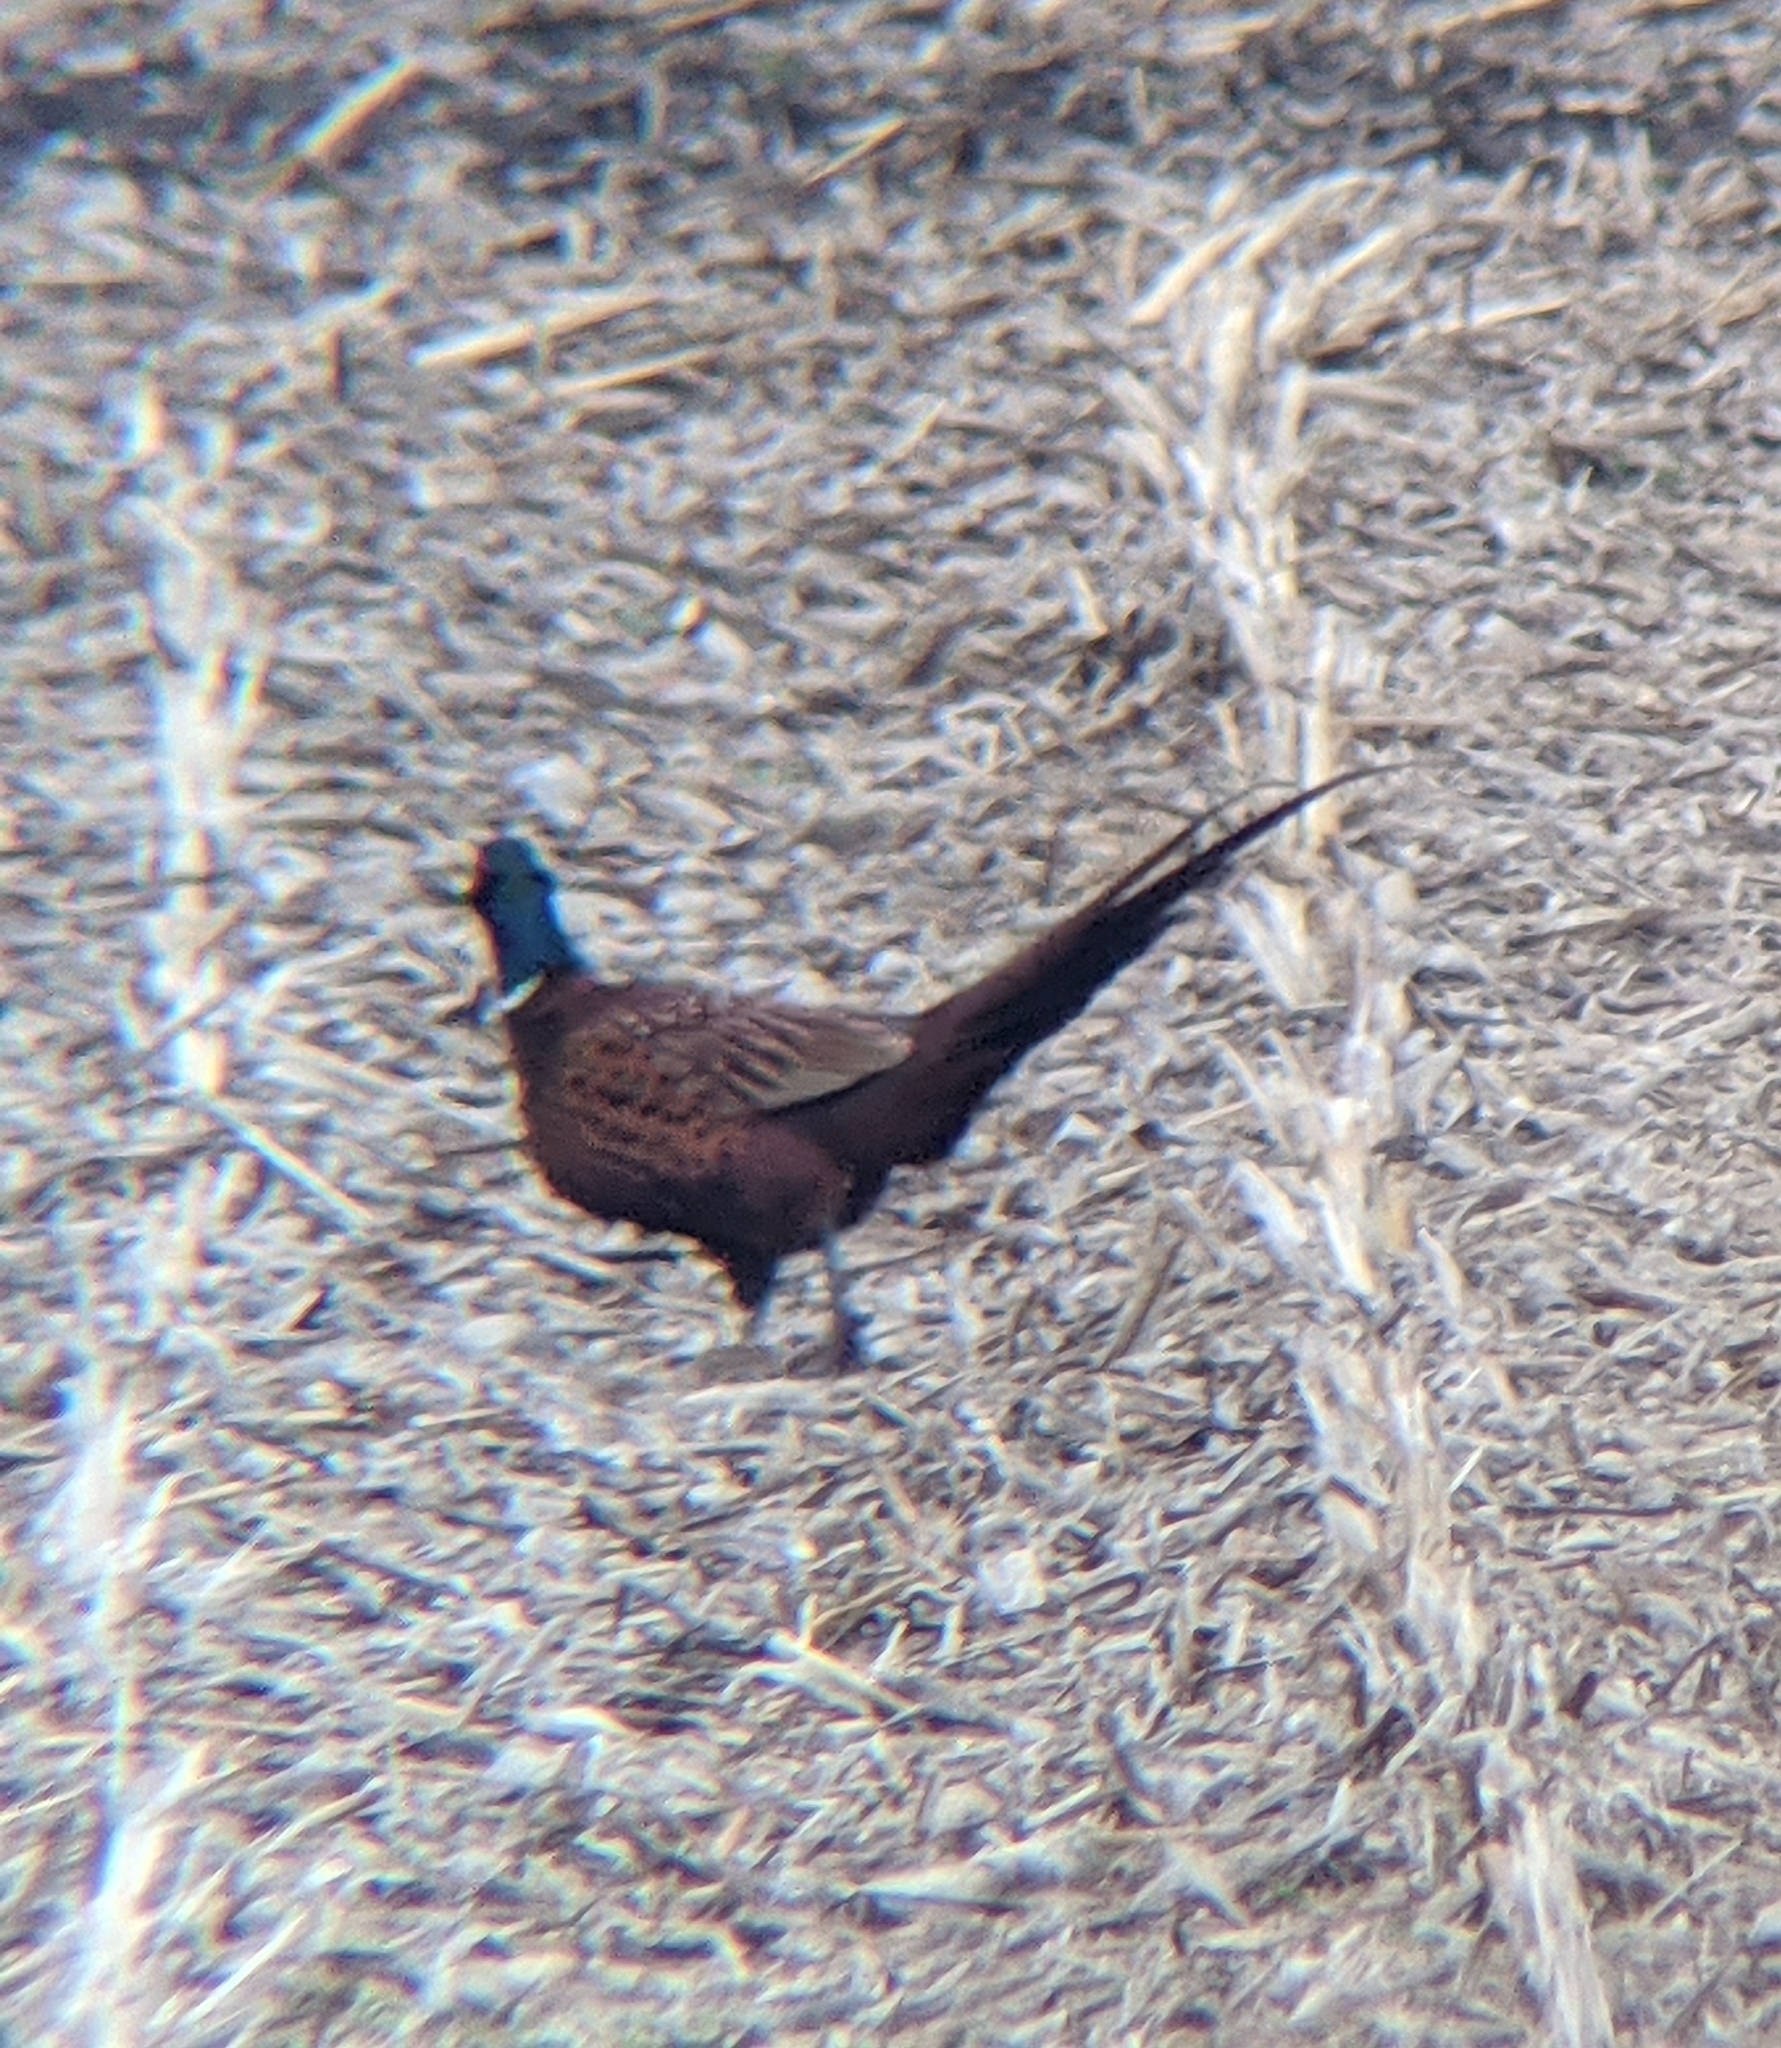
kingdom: Animalia
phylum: Chordata
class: Aves
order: Galliformes
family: Phasianidae
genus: Phasianus
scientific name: Phasianus colchicus
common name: Common pheasant
